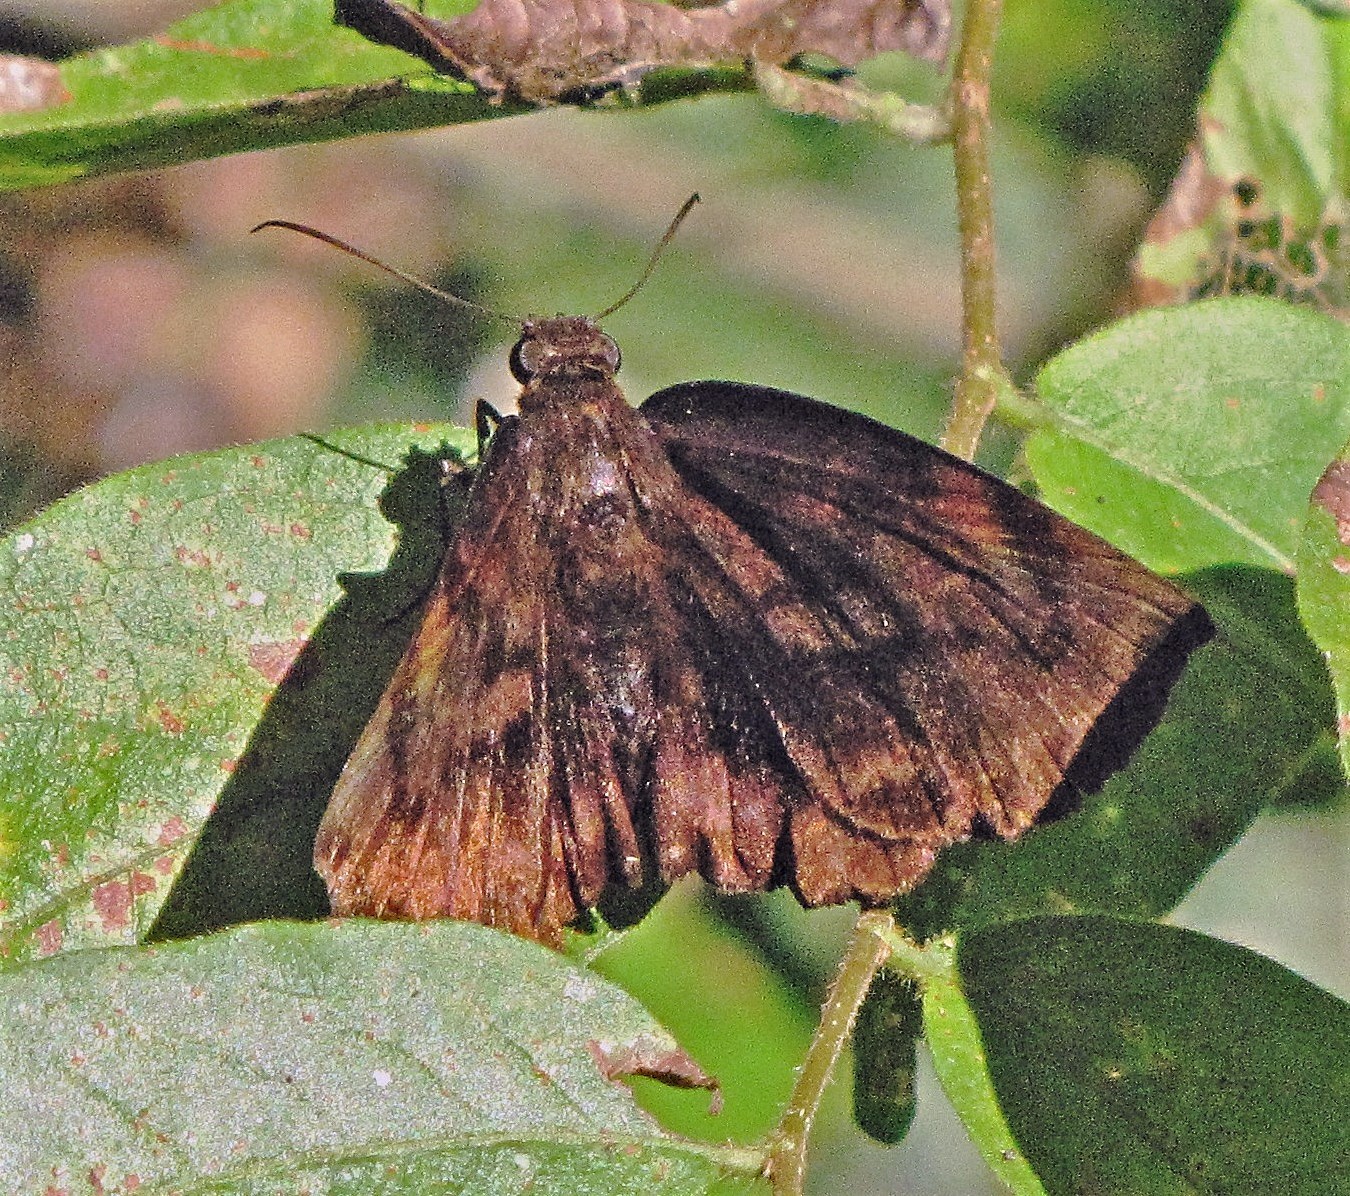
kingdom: Animalia
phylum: Arthropoda
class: Insecta
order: Lepidoptera
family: Hesperiidae
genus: Achlyodes
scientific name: Achlyodes busirus
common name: Giant sicklewing
